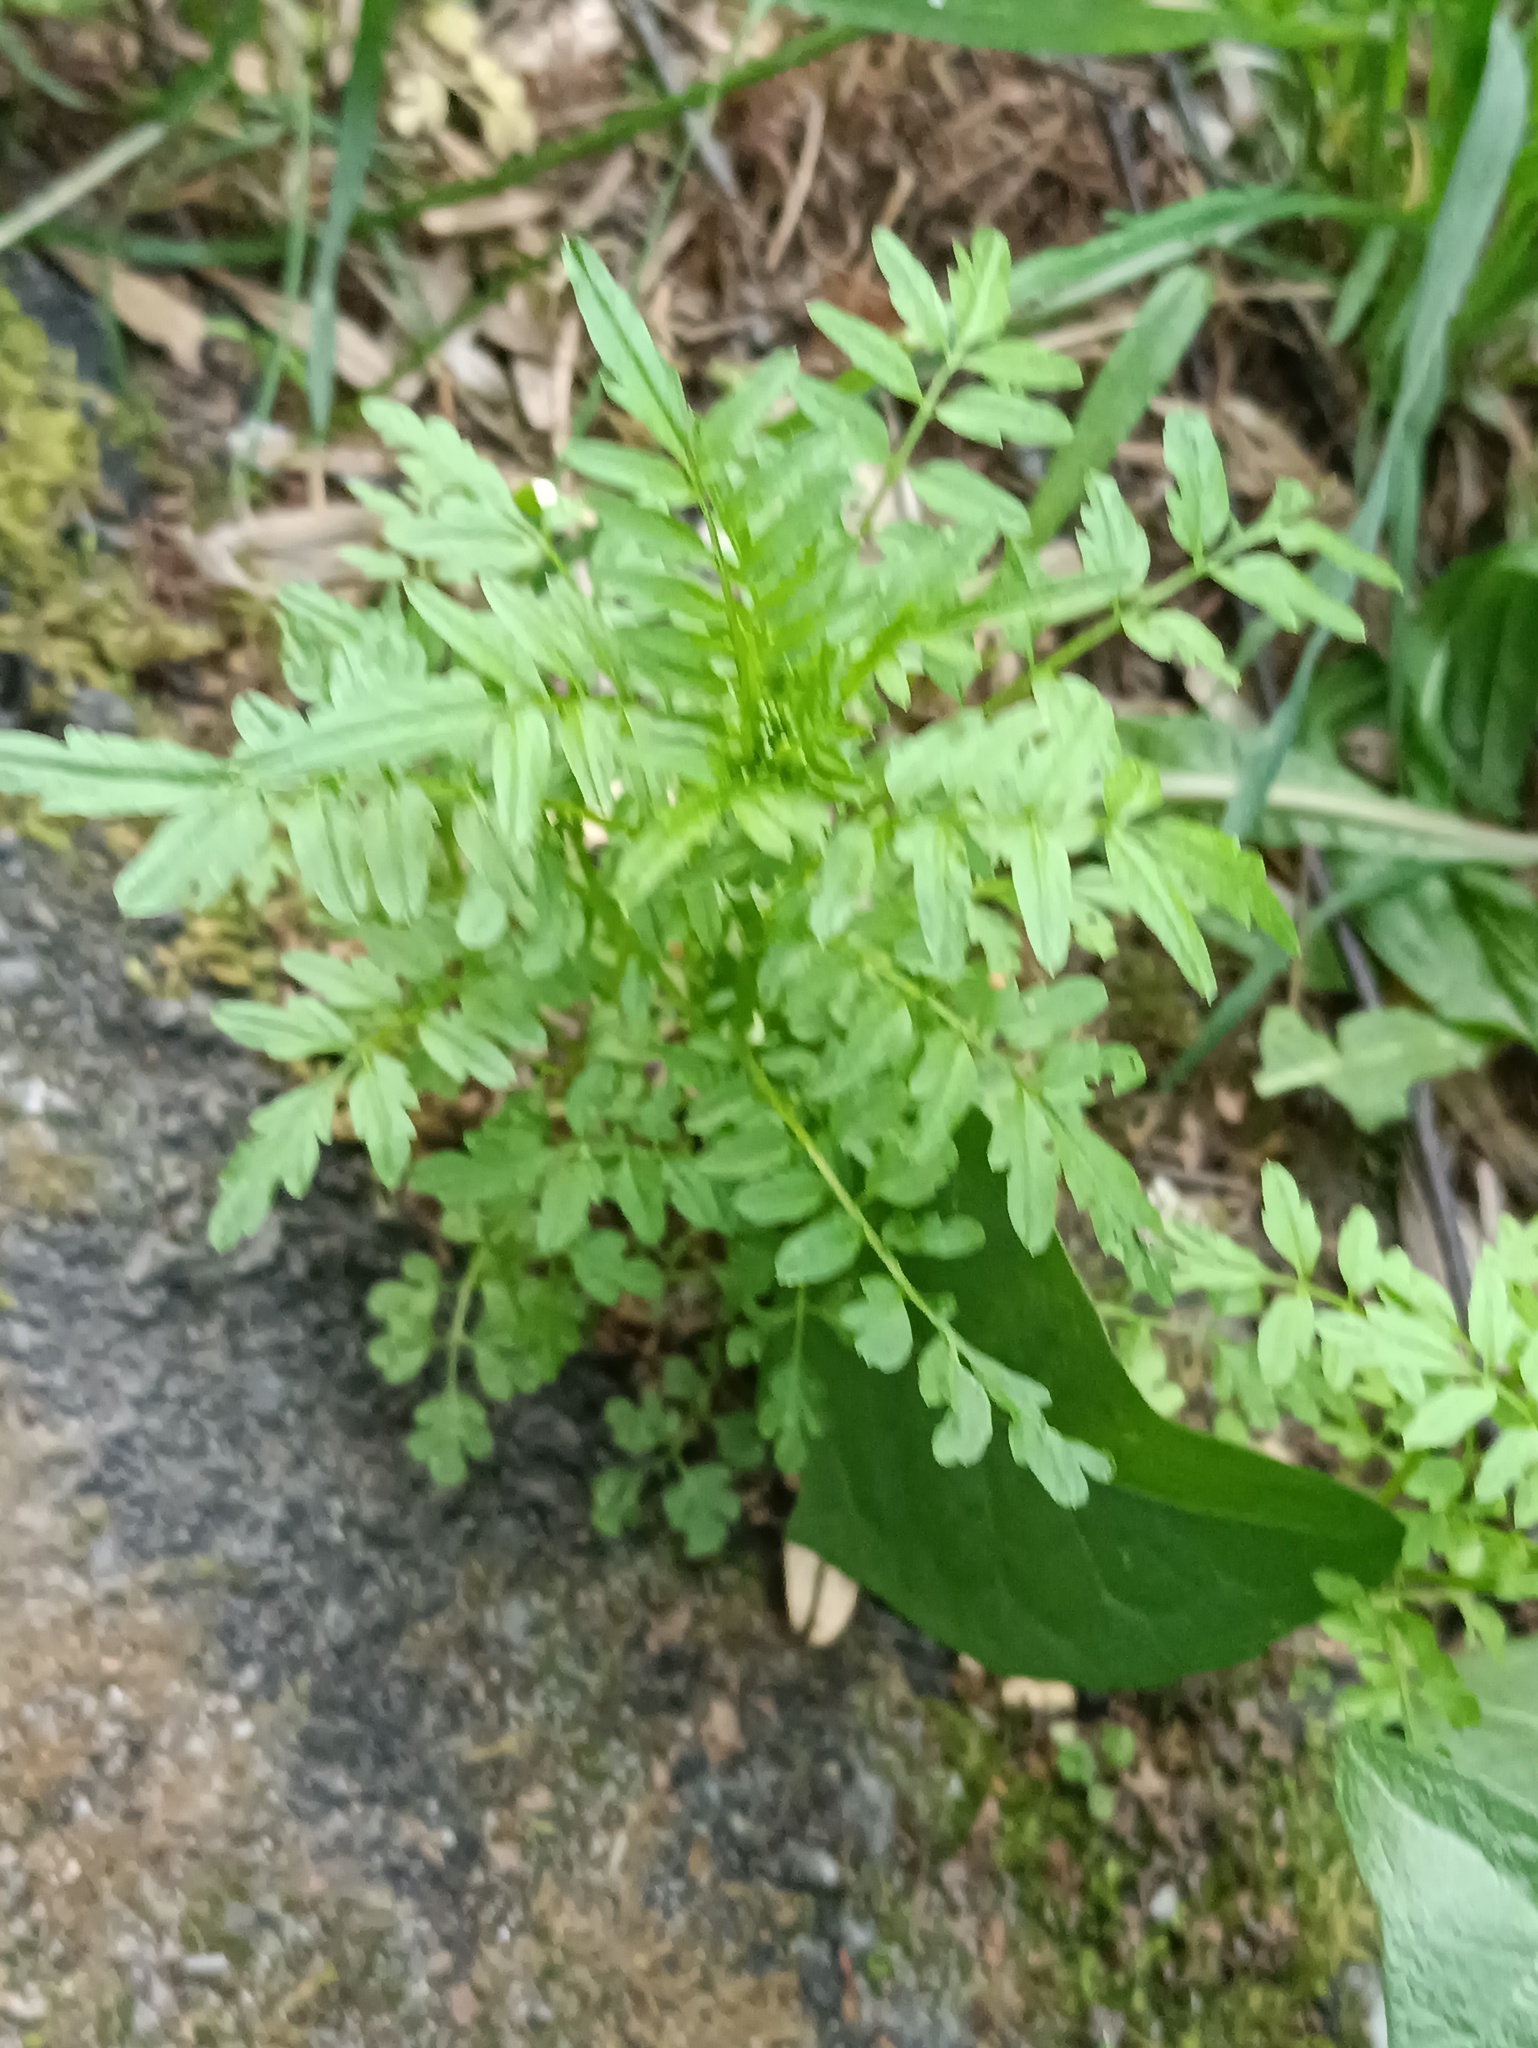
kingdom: Plantae
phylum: Tracheophyta
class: Magnoliopsida
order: Brassicales
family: Brassicaceae
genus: Cardamine
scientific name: Cardamine impatiens
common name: Narrow-leaved bitter-cress
